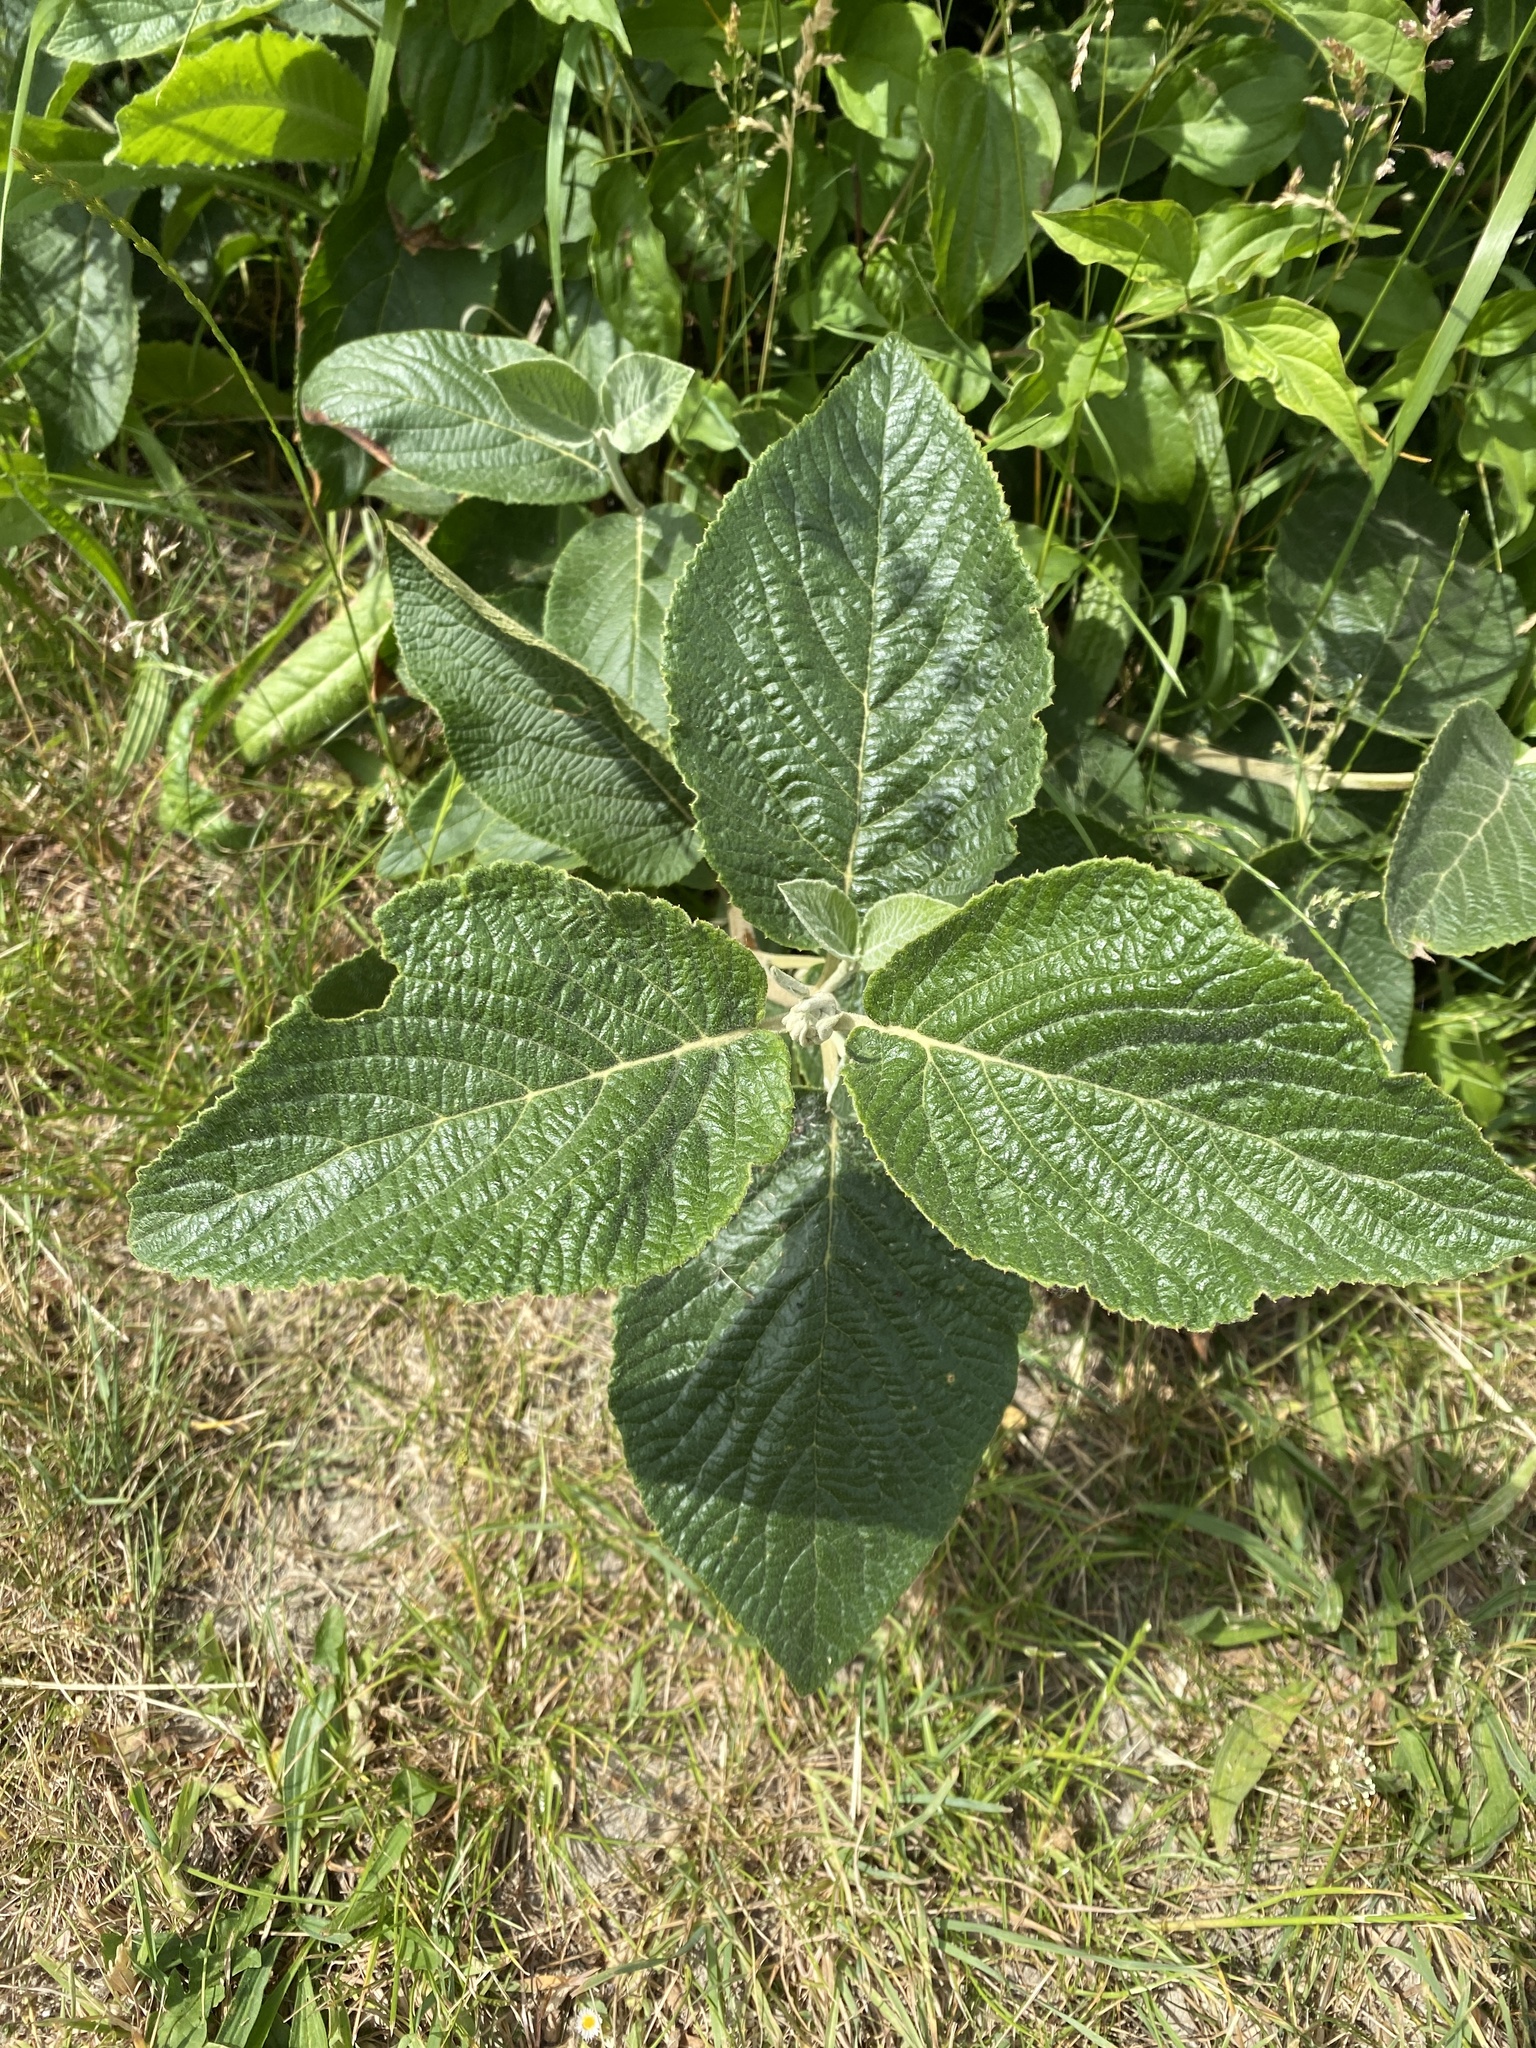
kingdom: Plantae
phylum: Tracheophyta
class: Magnoliopsida
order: Dipsacales
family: Viburnaceae
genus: Viburnum
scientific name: Viburnum lantana
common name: Wayfaring tree
